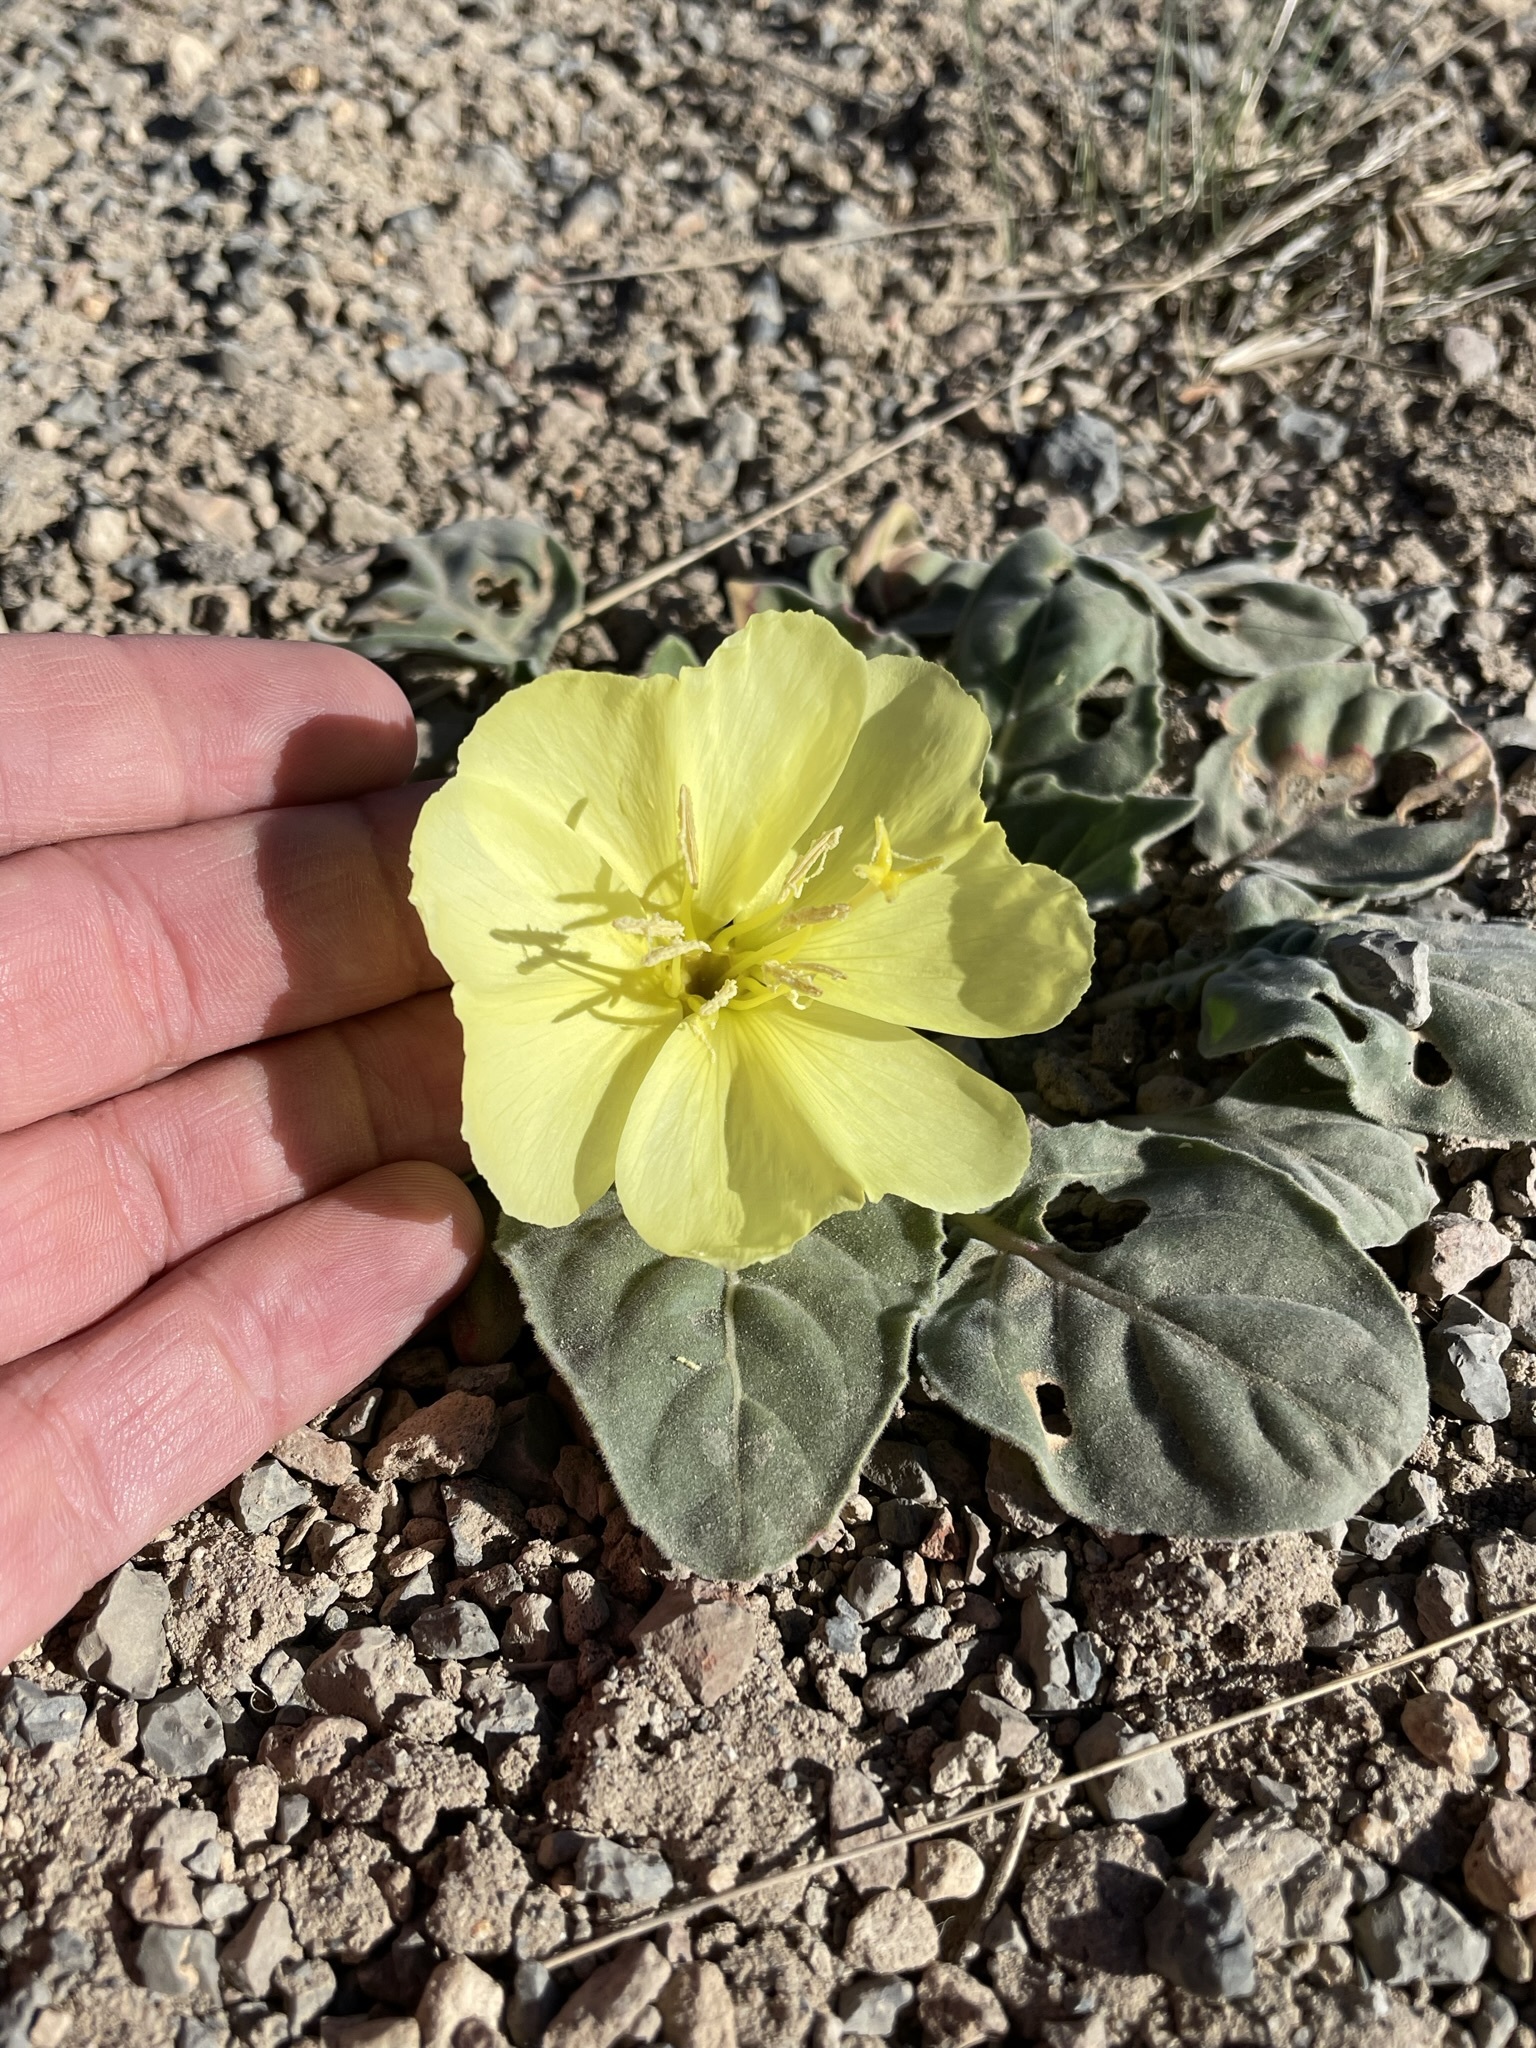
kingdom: Plantae
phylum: Tracheophyta
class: Magnoliopsida
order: Myrtales
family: Onagraceae
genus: Oenothera
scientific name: Oenothera xylocarpa
